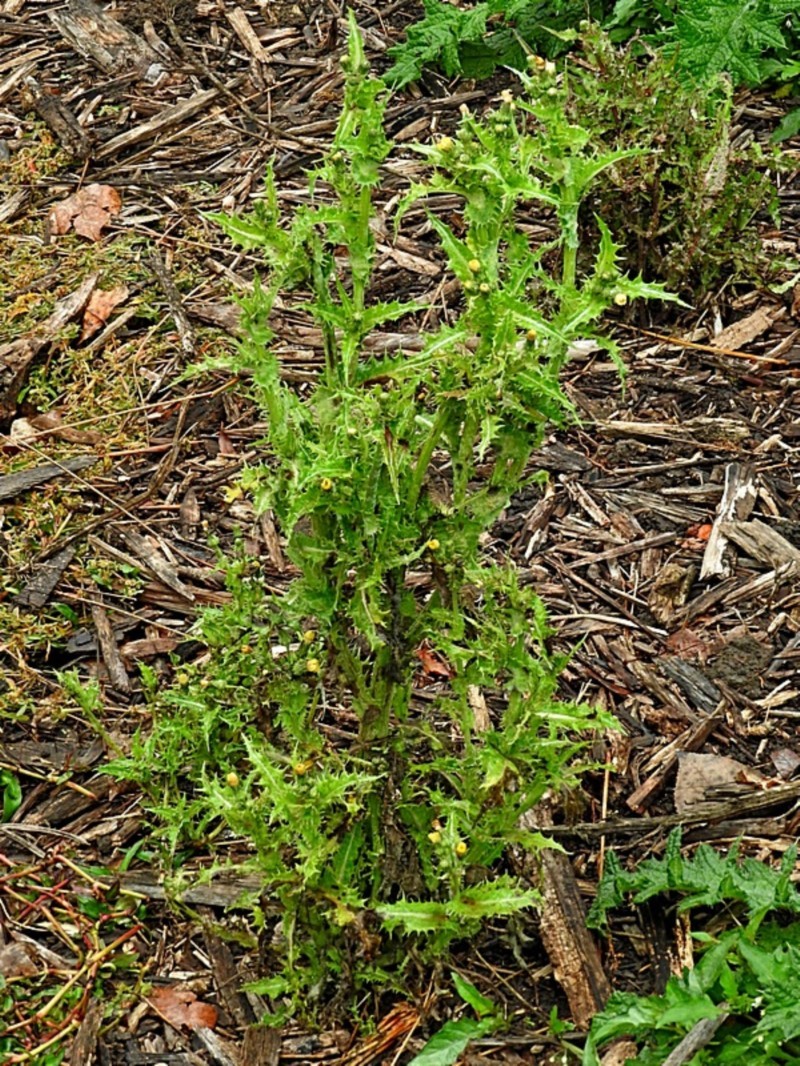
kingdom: Plantae
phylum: Tracheophyta
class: Magnoliopsida
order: Asterales
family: Asteraceae
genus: Sonchus
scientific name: Sonchus asper
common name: Prickly sow-thistle
